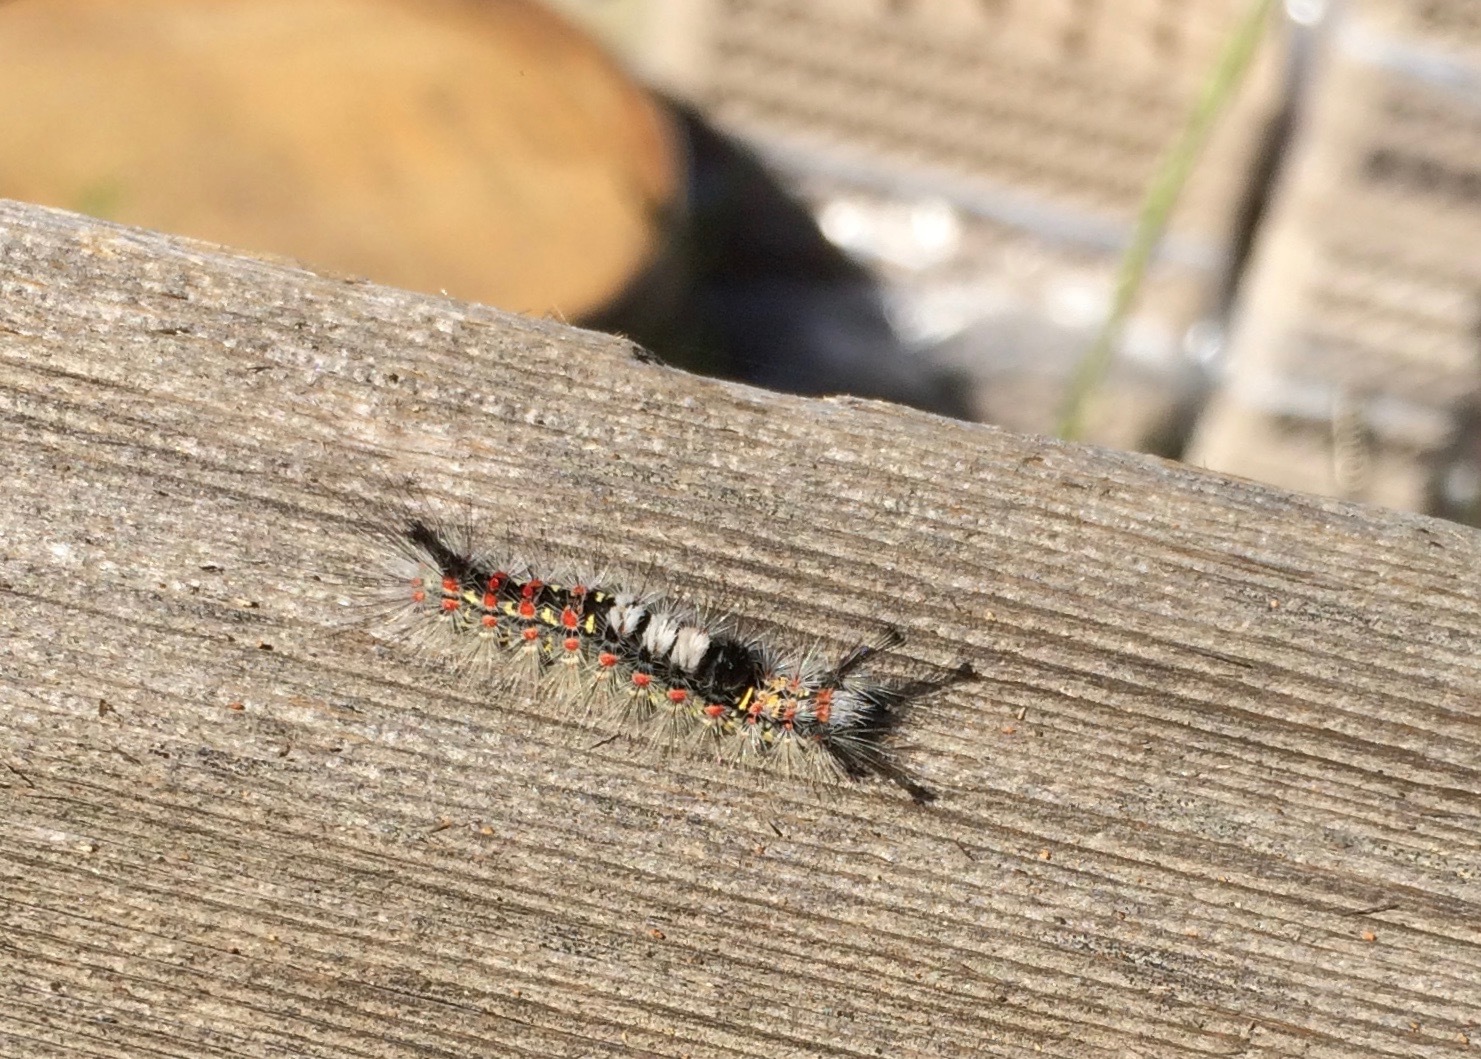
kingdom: Animalia
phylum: Arthropoda
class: Insecta
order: Lepidoptera
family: Erebidae
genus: Orgyia
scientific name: Orgyia vetusta
